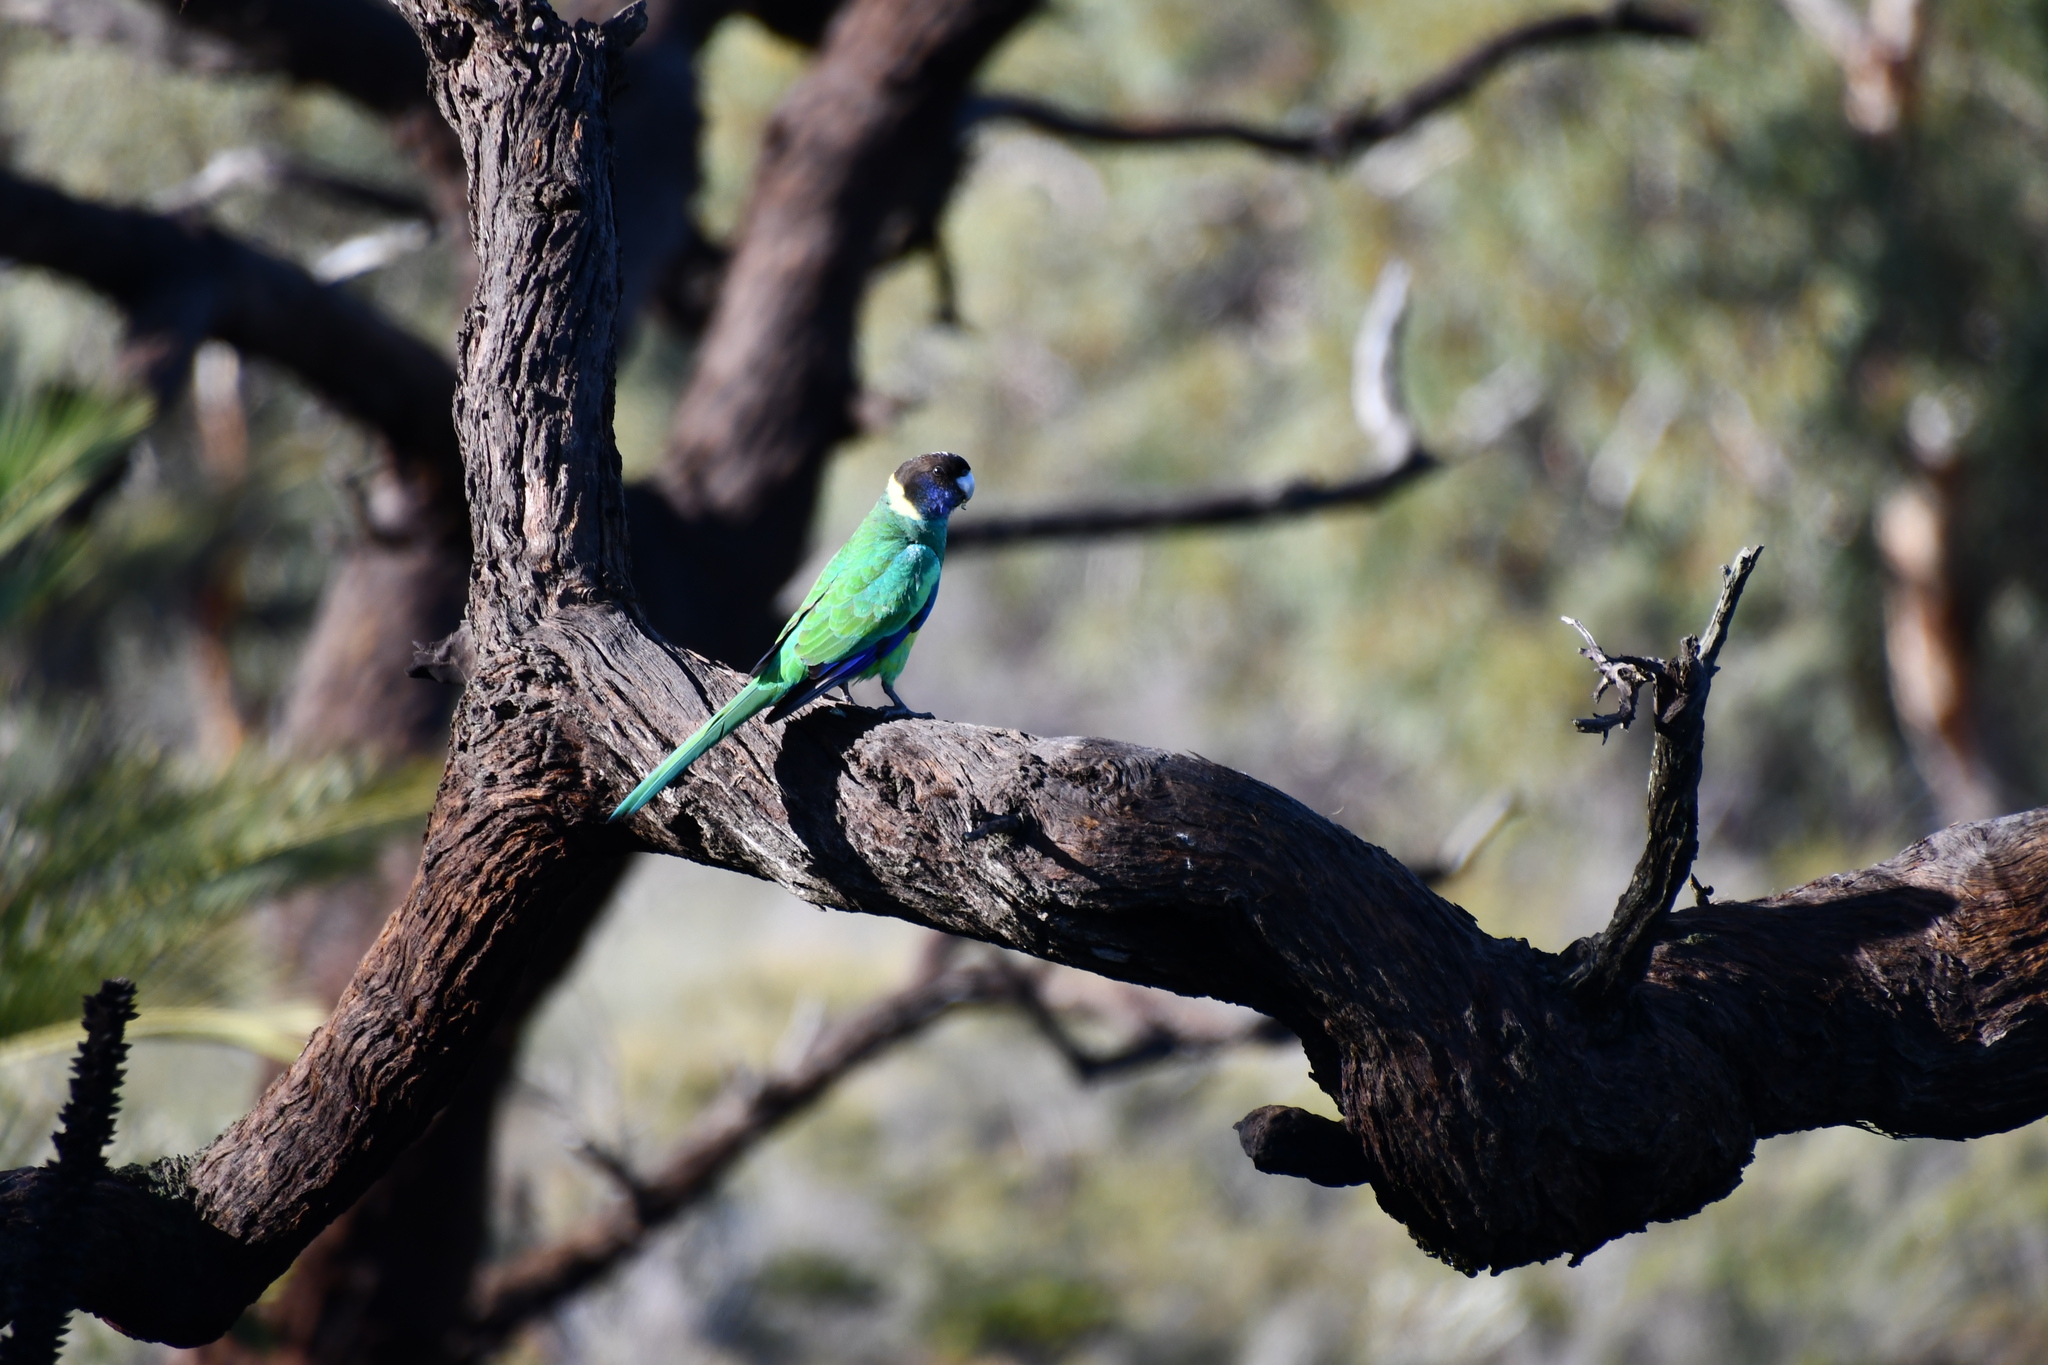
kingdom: Animalia
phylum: Chordata
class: Aves
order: Psittaciformes
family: Psittacidae
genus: Barnardius
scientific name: Barnardius zonarius
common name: Australian ringneck
